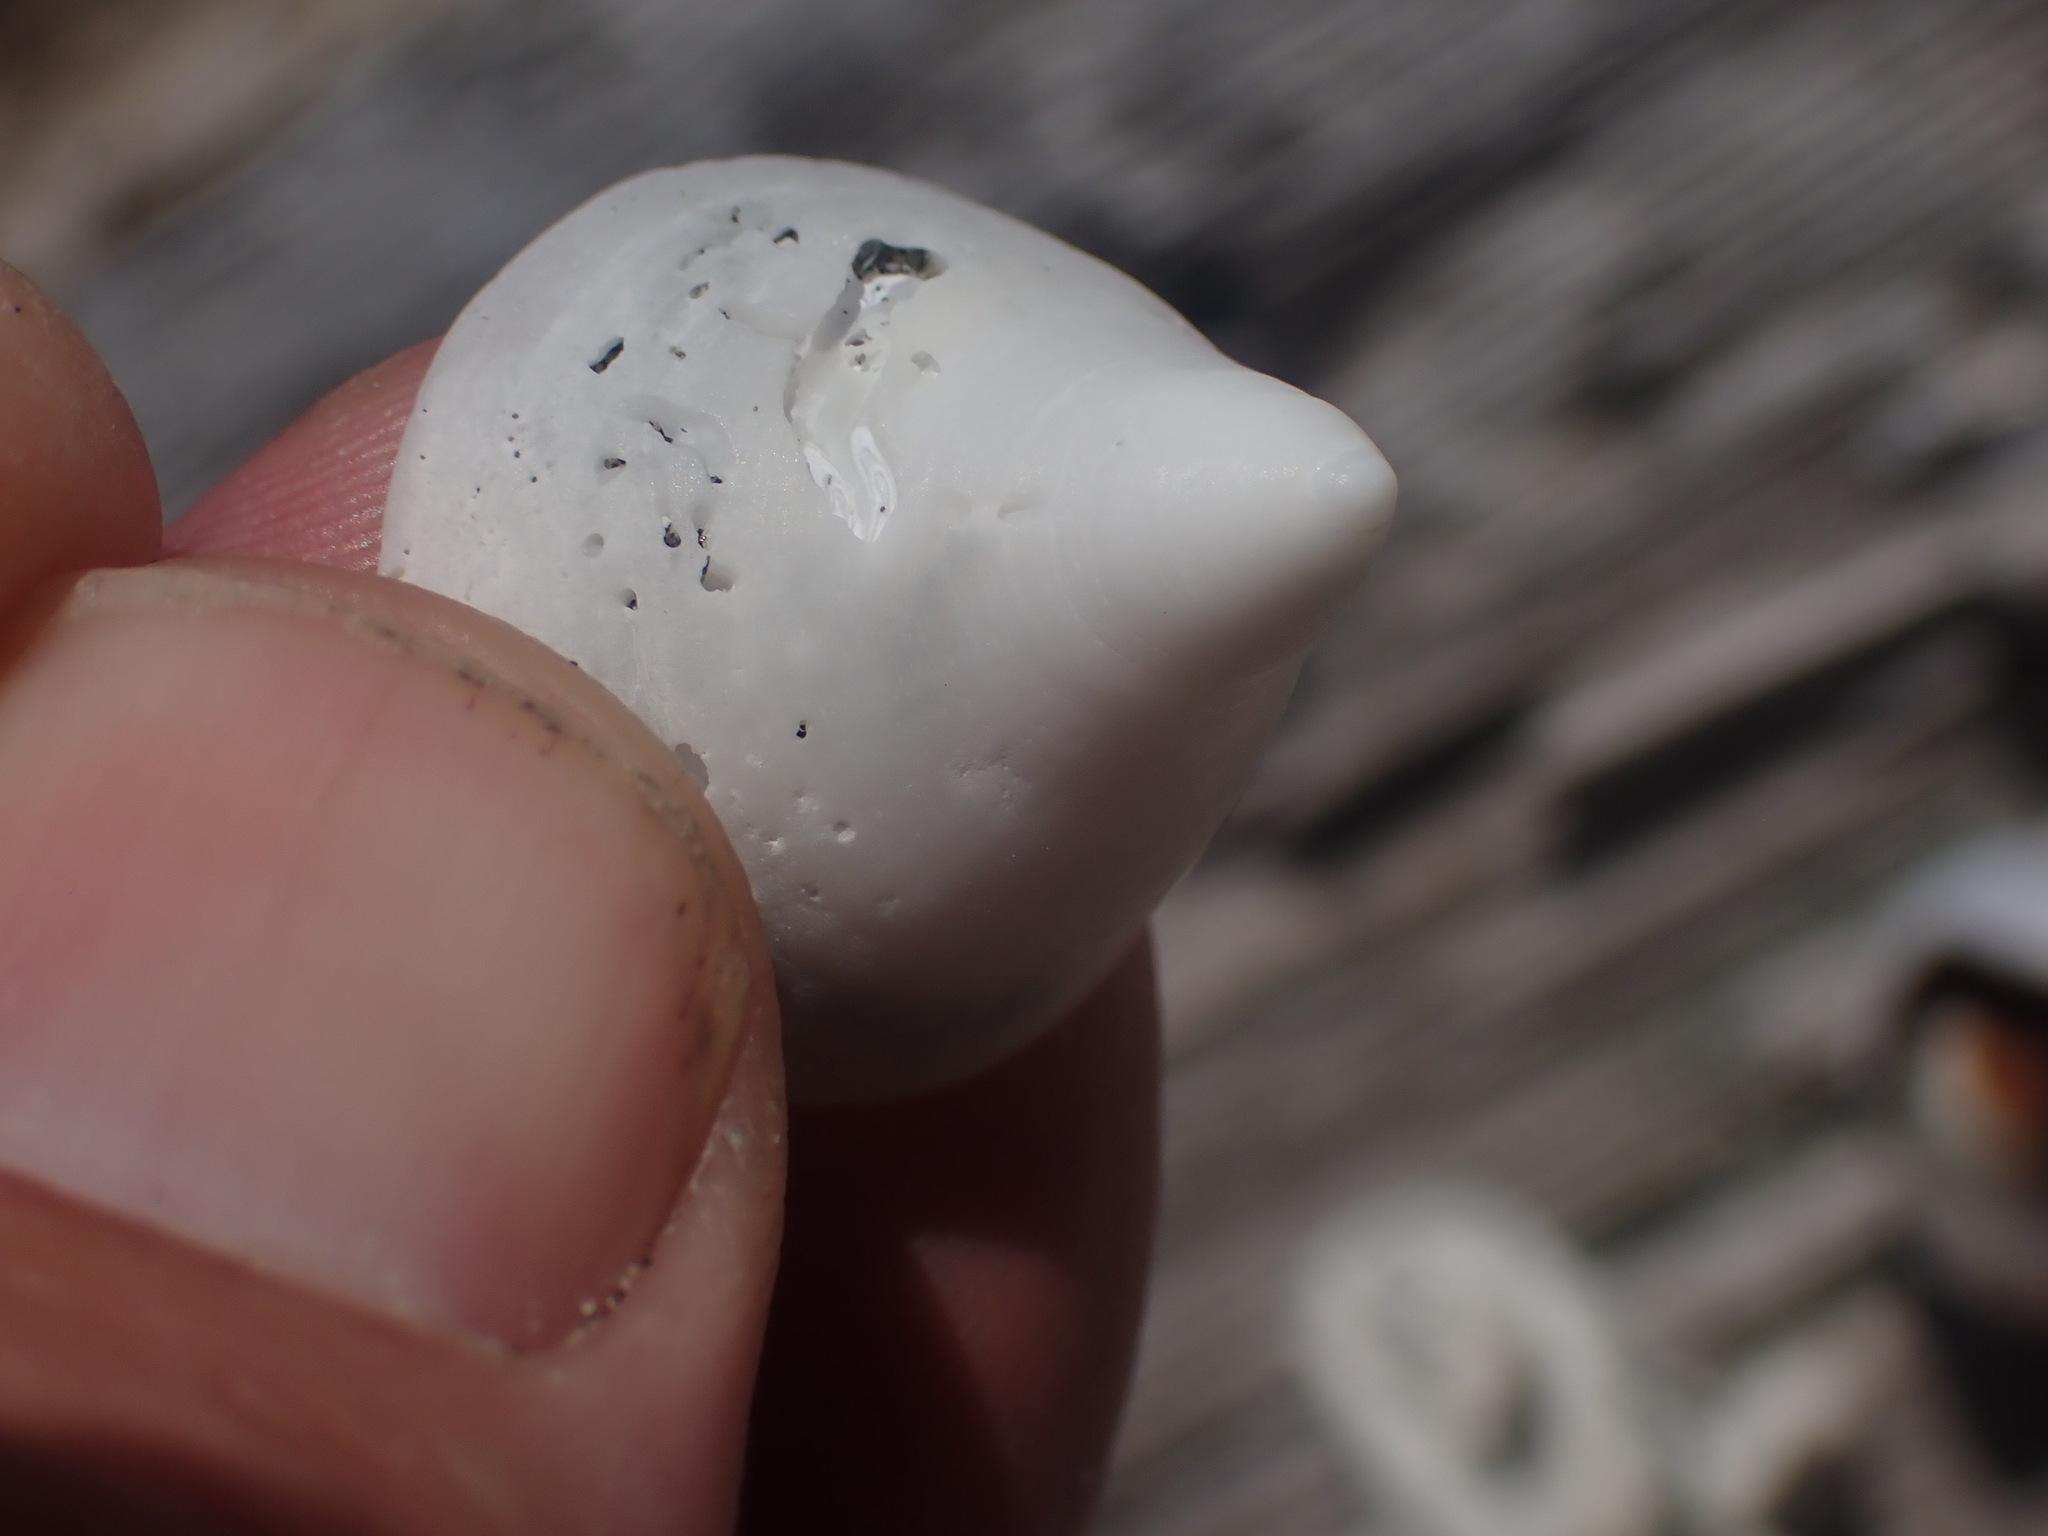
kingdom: Animalia
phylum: Mollusca
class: Gastropoda
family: Acmaeidae
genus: Acmaea
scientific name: Acmaea mitra
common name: Pacific white cap limpet
